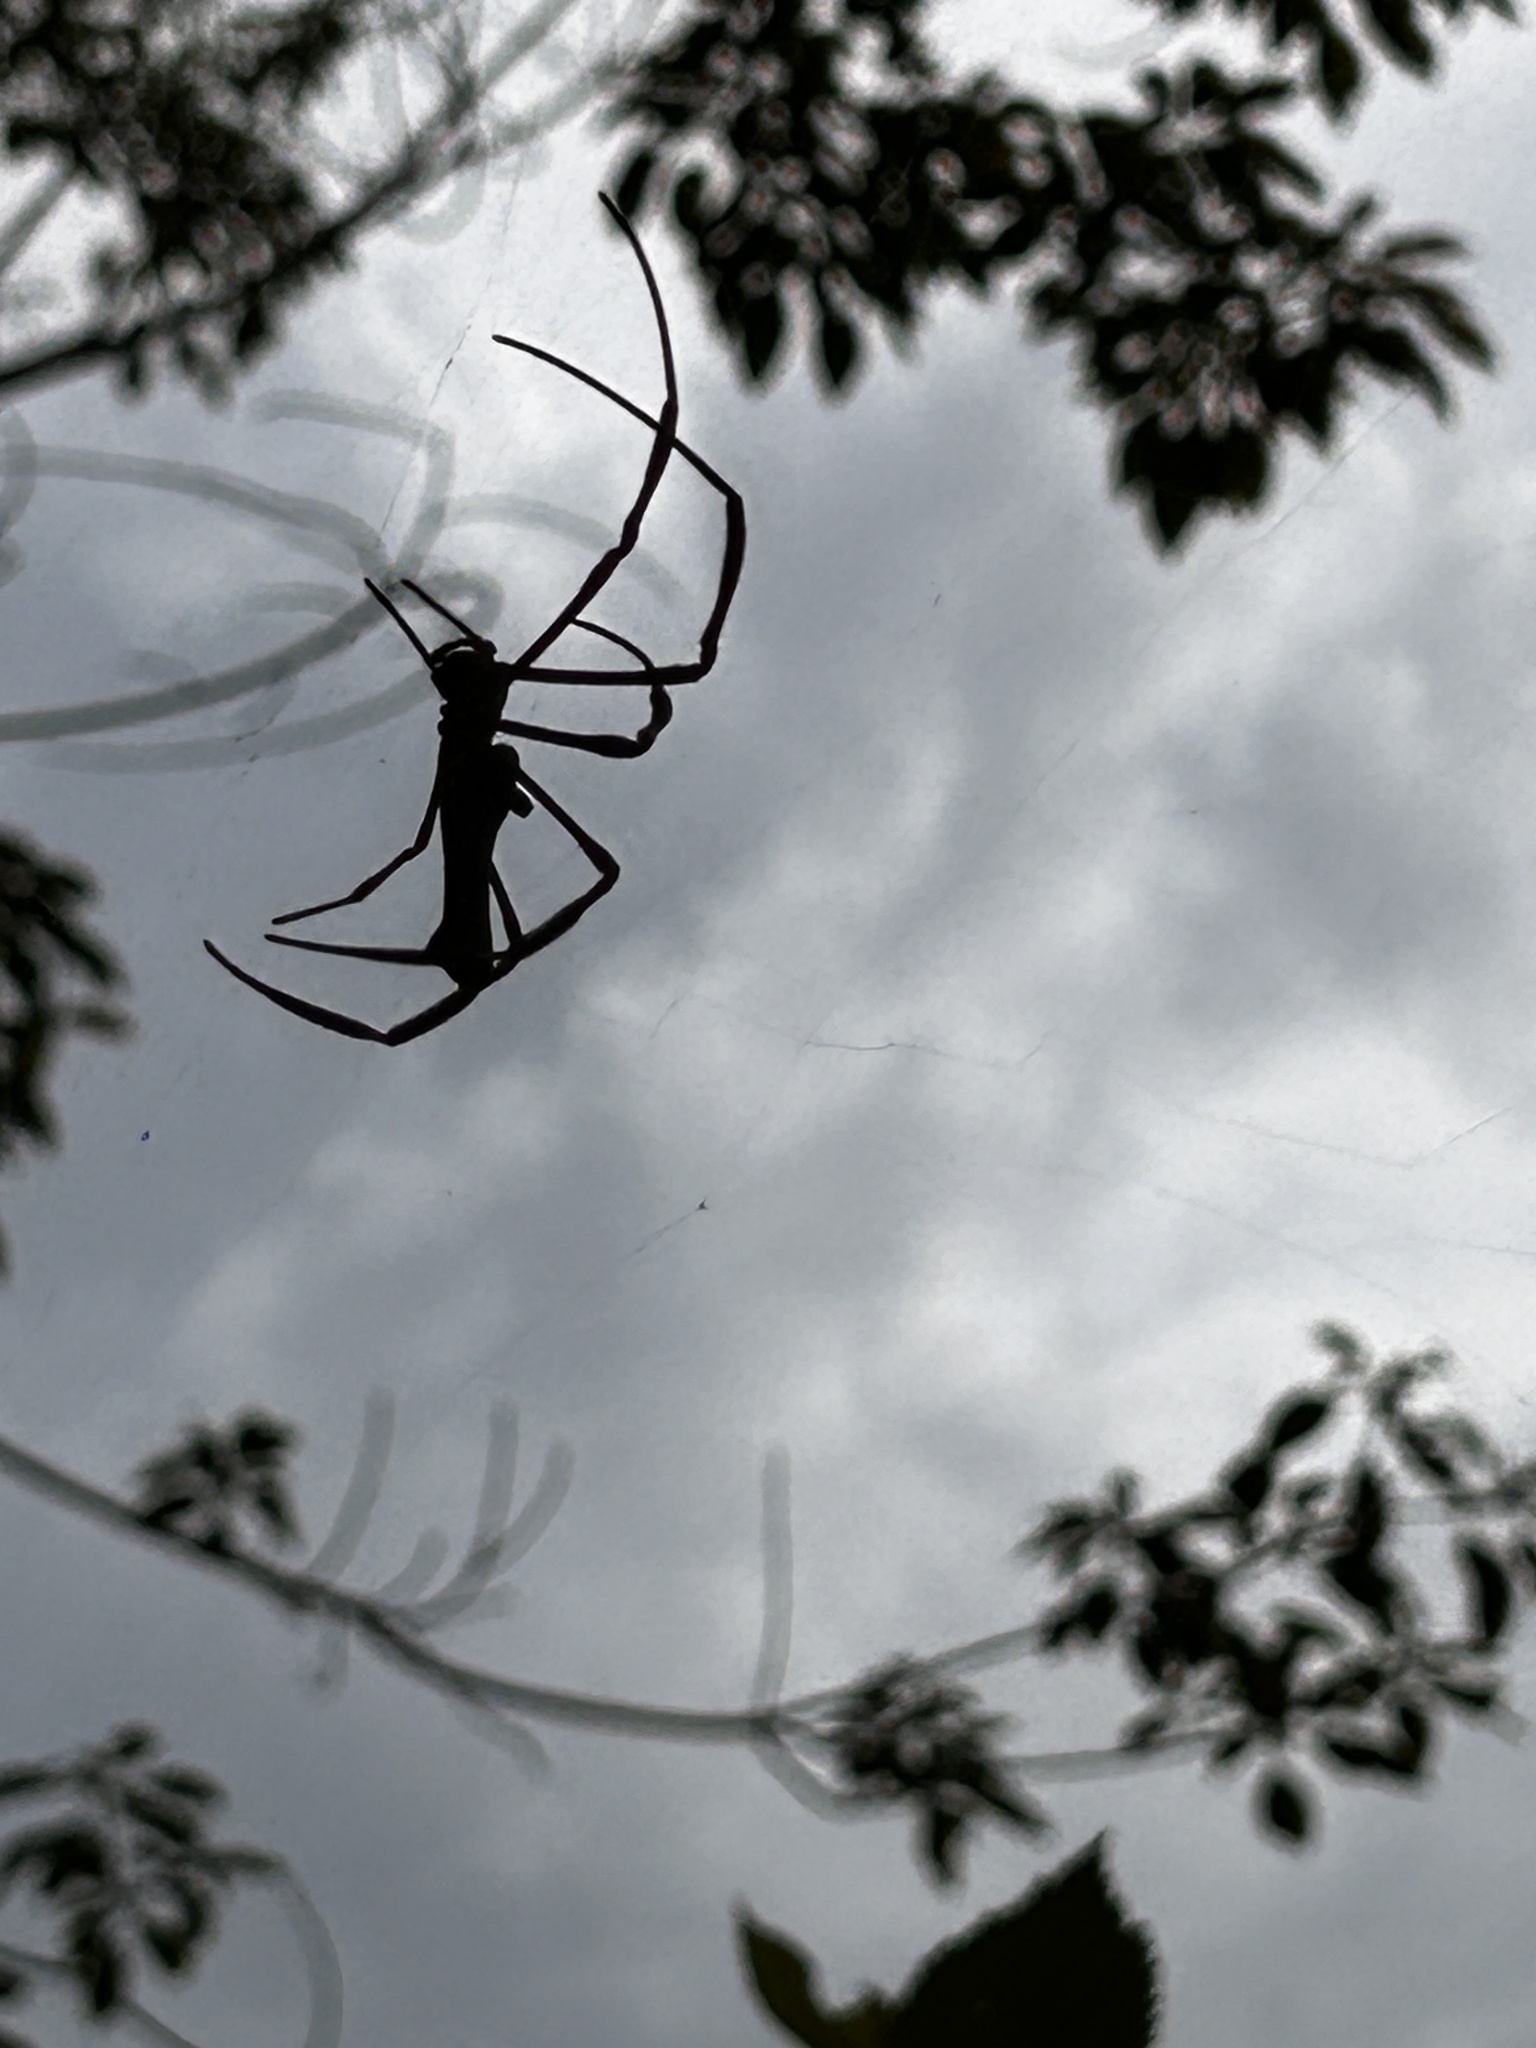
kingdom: Animalia
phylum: Arthropoda
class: Arachnida
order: Araneae
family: Araneidae
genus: Nephila
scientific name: Nephila pilipes
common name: Giant golden orb weaver
